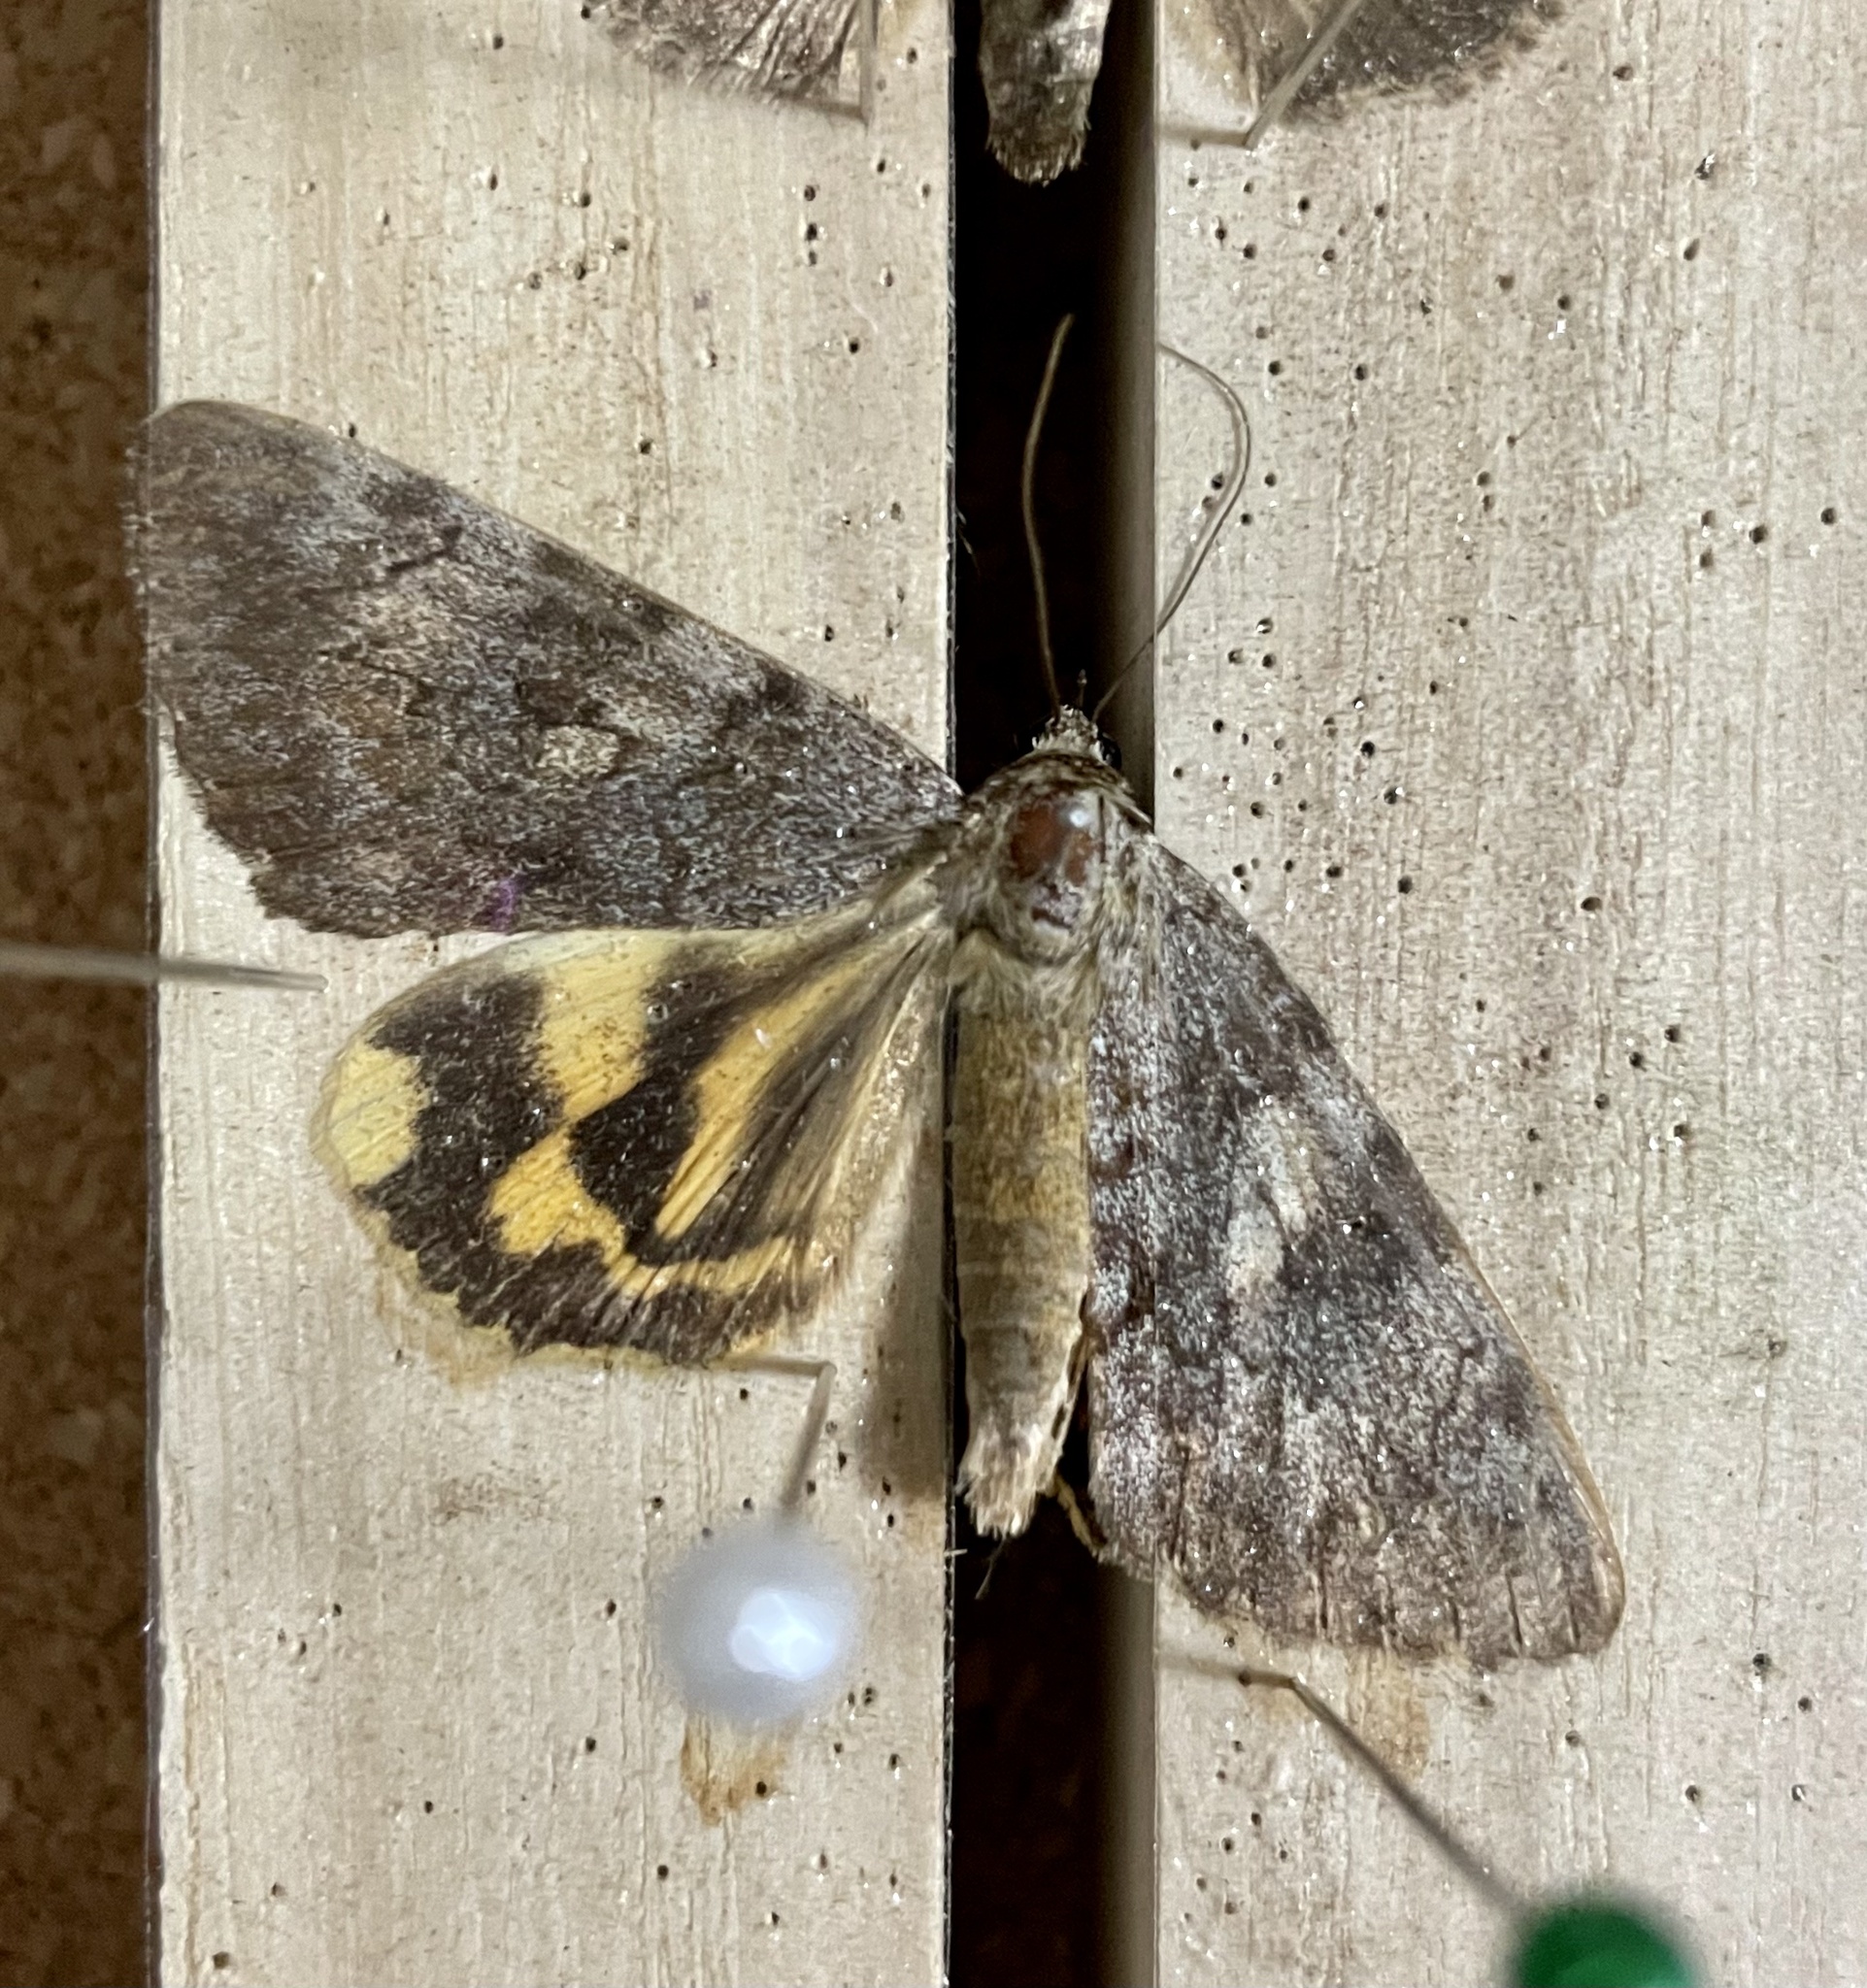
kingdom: Animalia
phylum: Arthropoda
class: Insecta
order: Lepidoptera
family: Erebidae
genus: Catocala
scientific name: Catocala nubila
